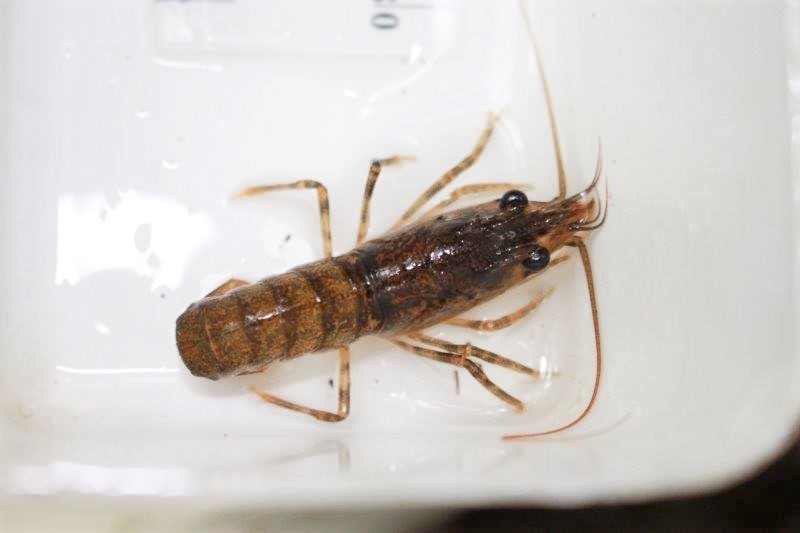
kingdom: Animalia
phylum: Arthropoda
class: Malacostraca
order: Decapoda
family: Parastacidae
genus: Paranephrops
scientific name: Paranephrops planifrons
